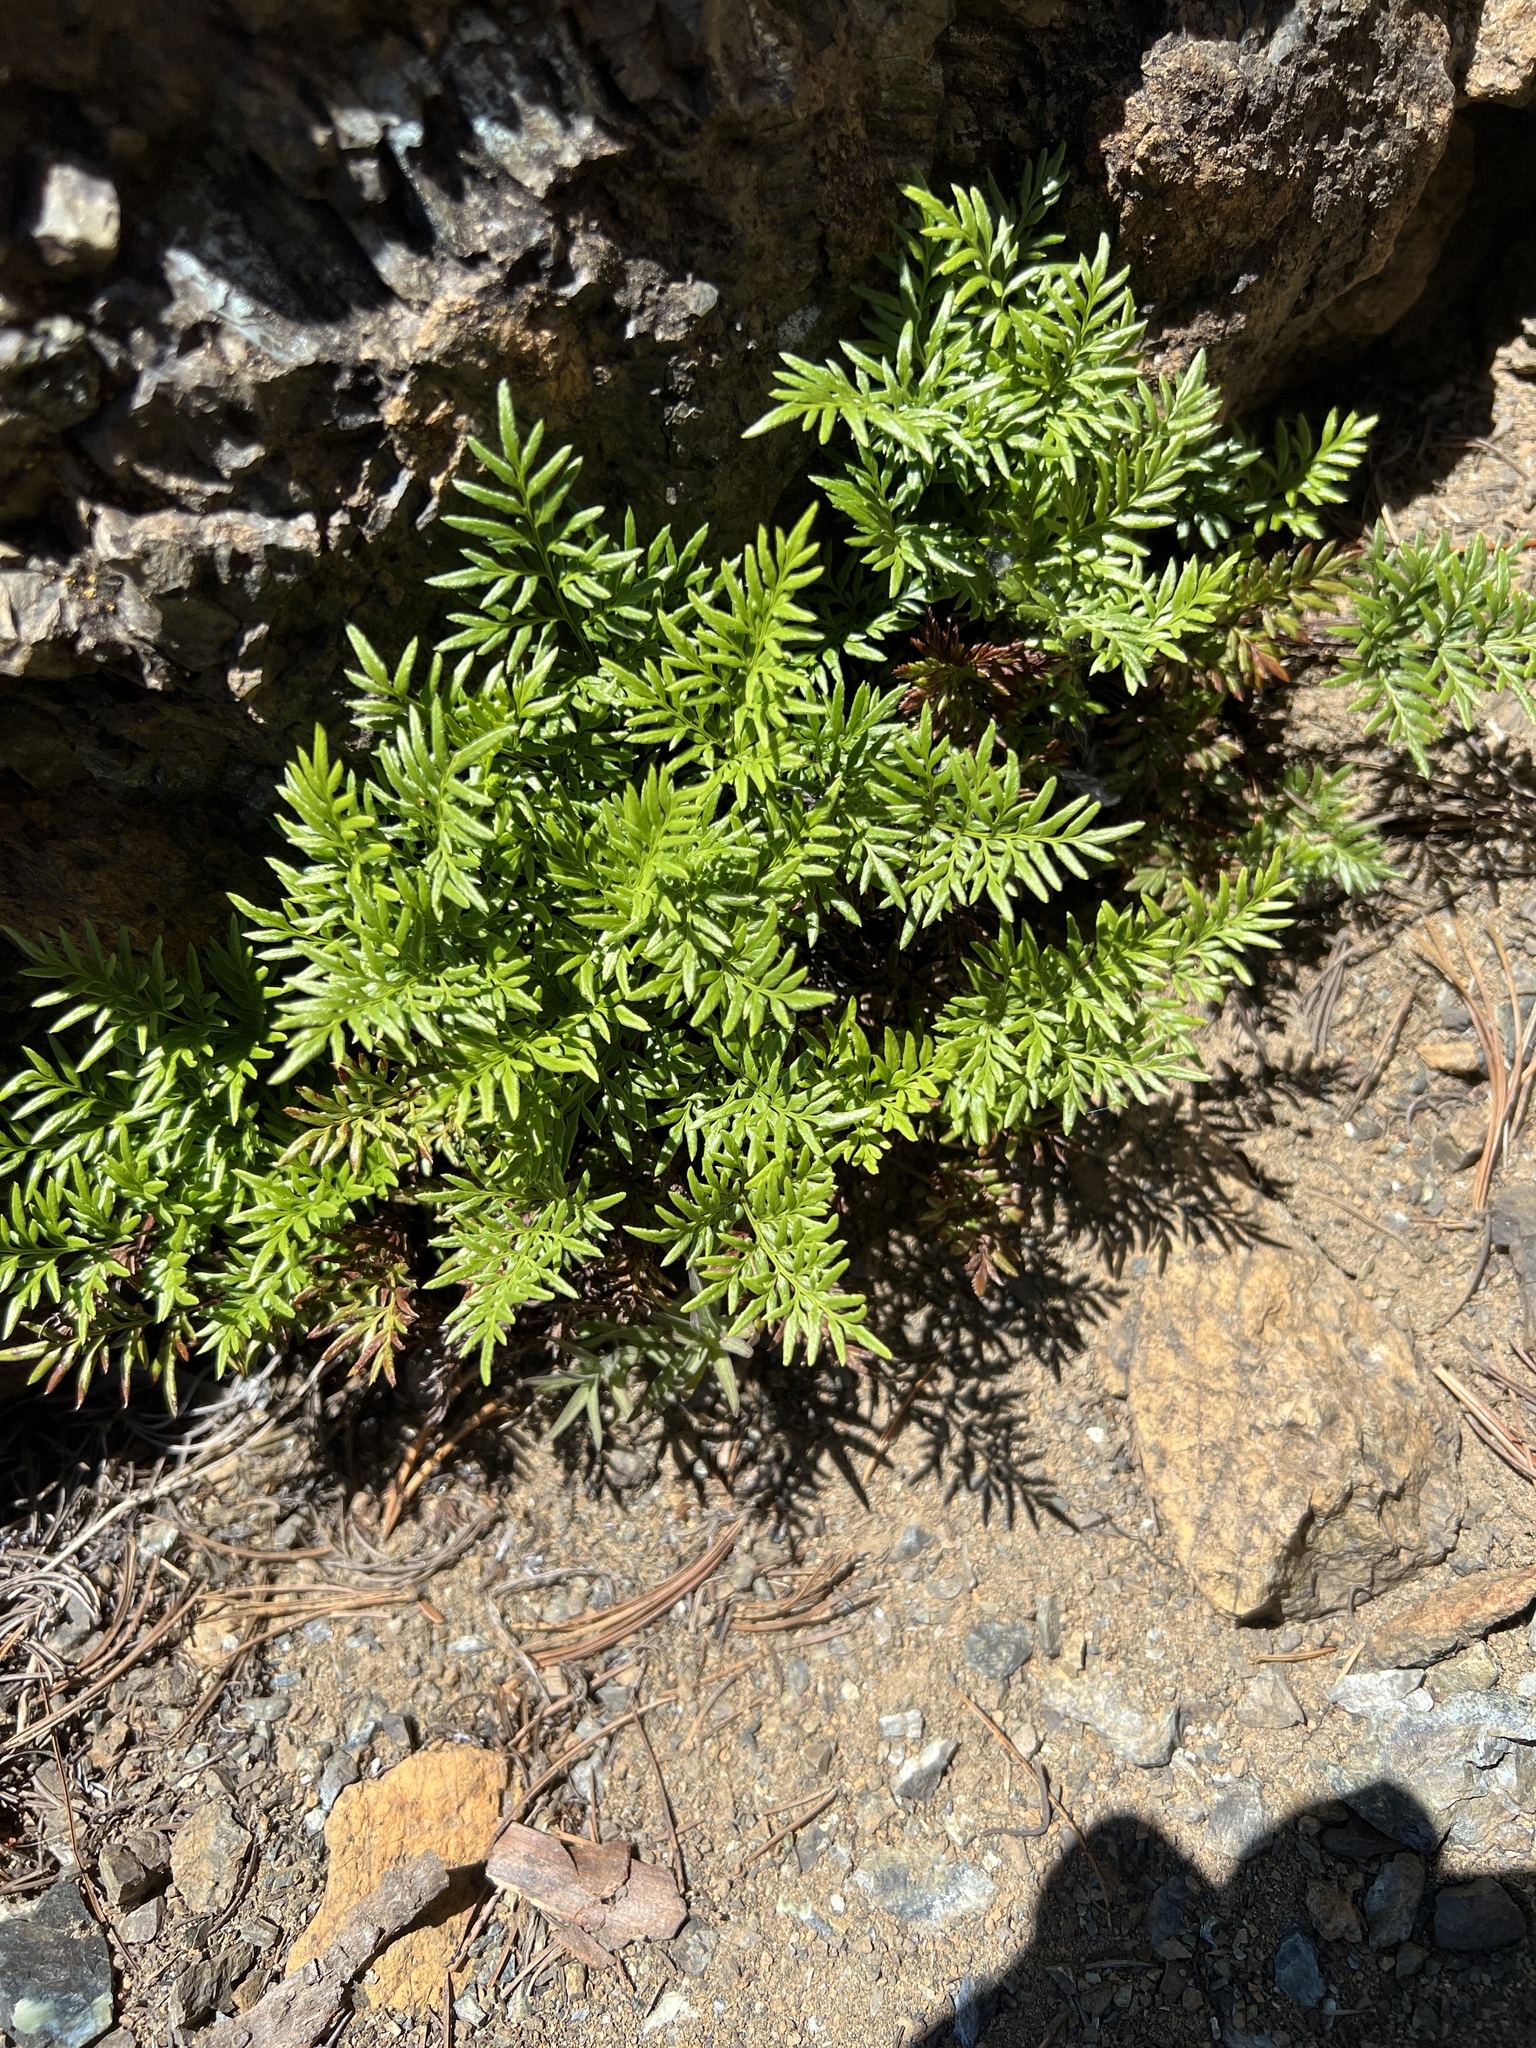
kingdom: Plantae
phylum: Tracheophyta
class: Polypodiopsida
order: Polypodiales
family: Pteridaceae
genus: Aspidotis
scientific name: Aspidotis densa
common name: Indian's dream
